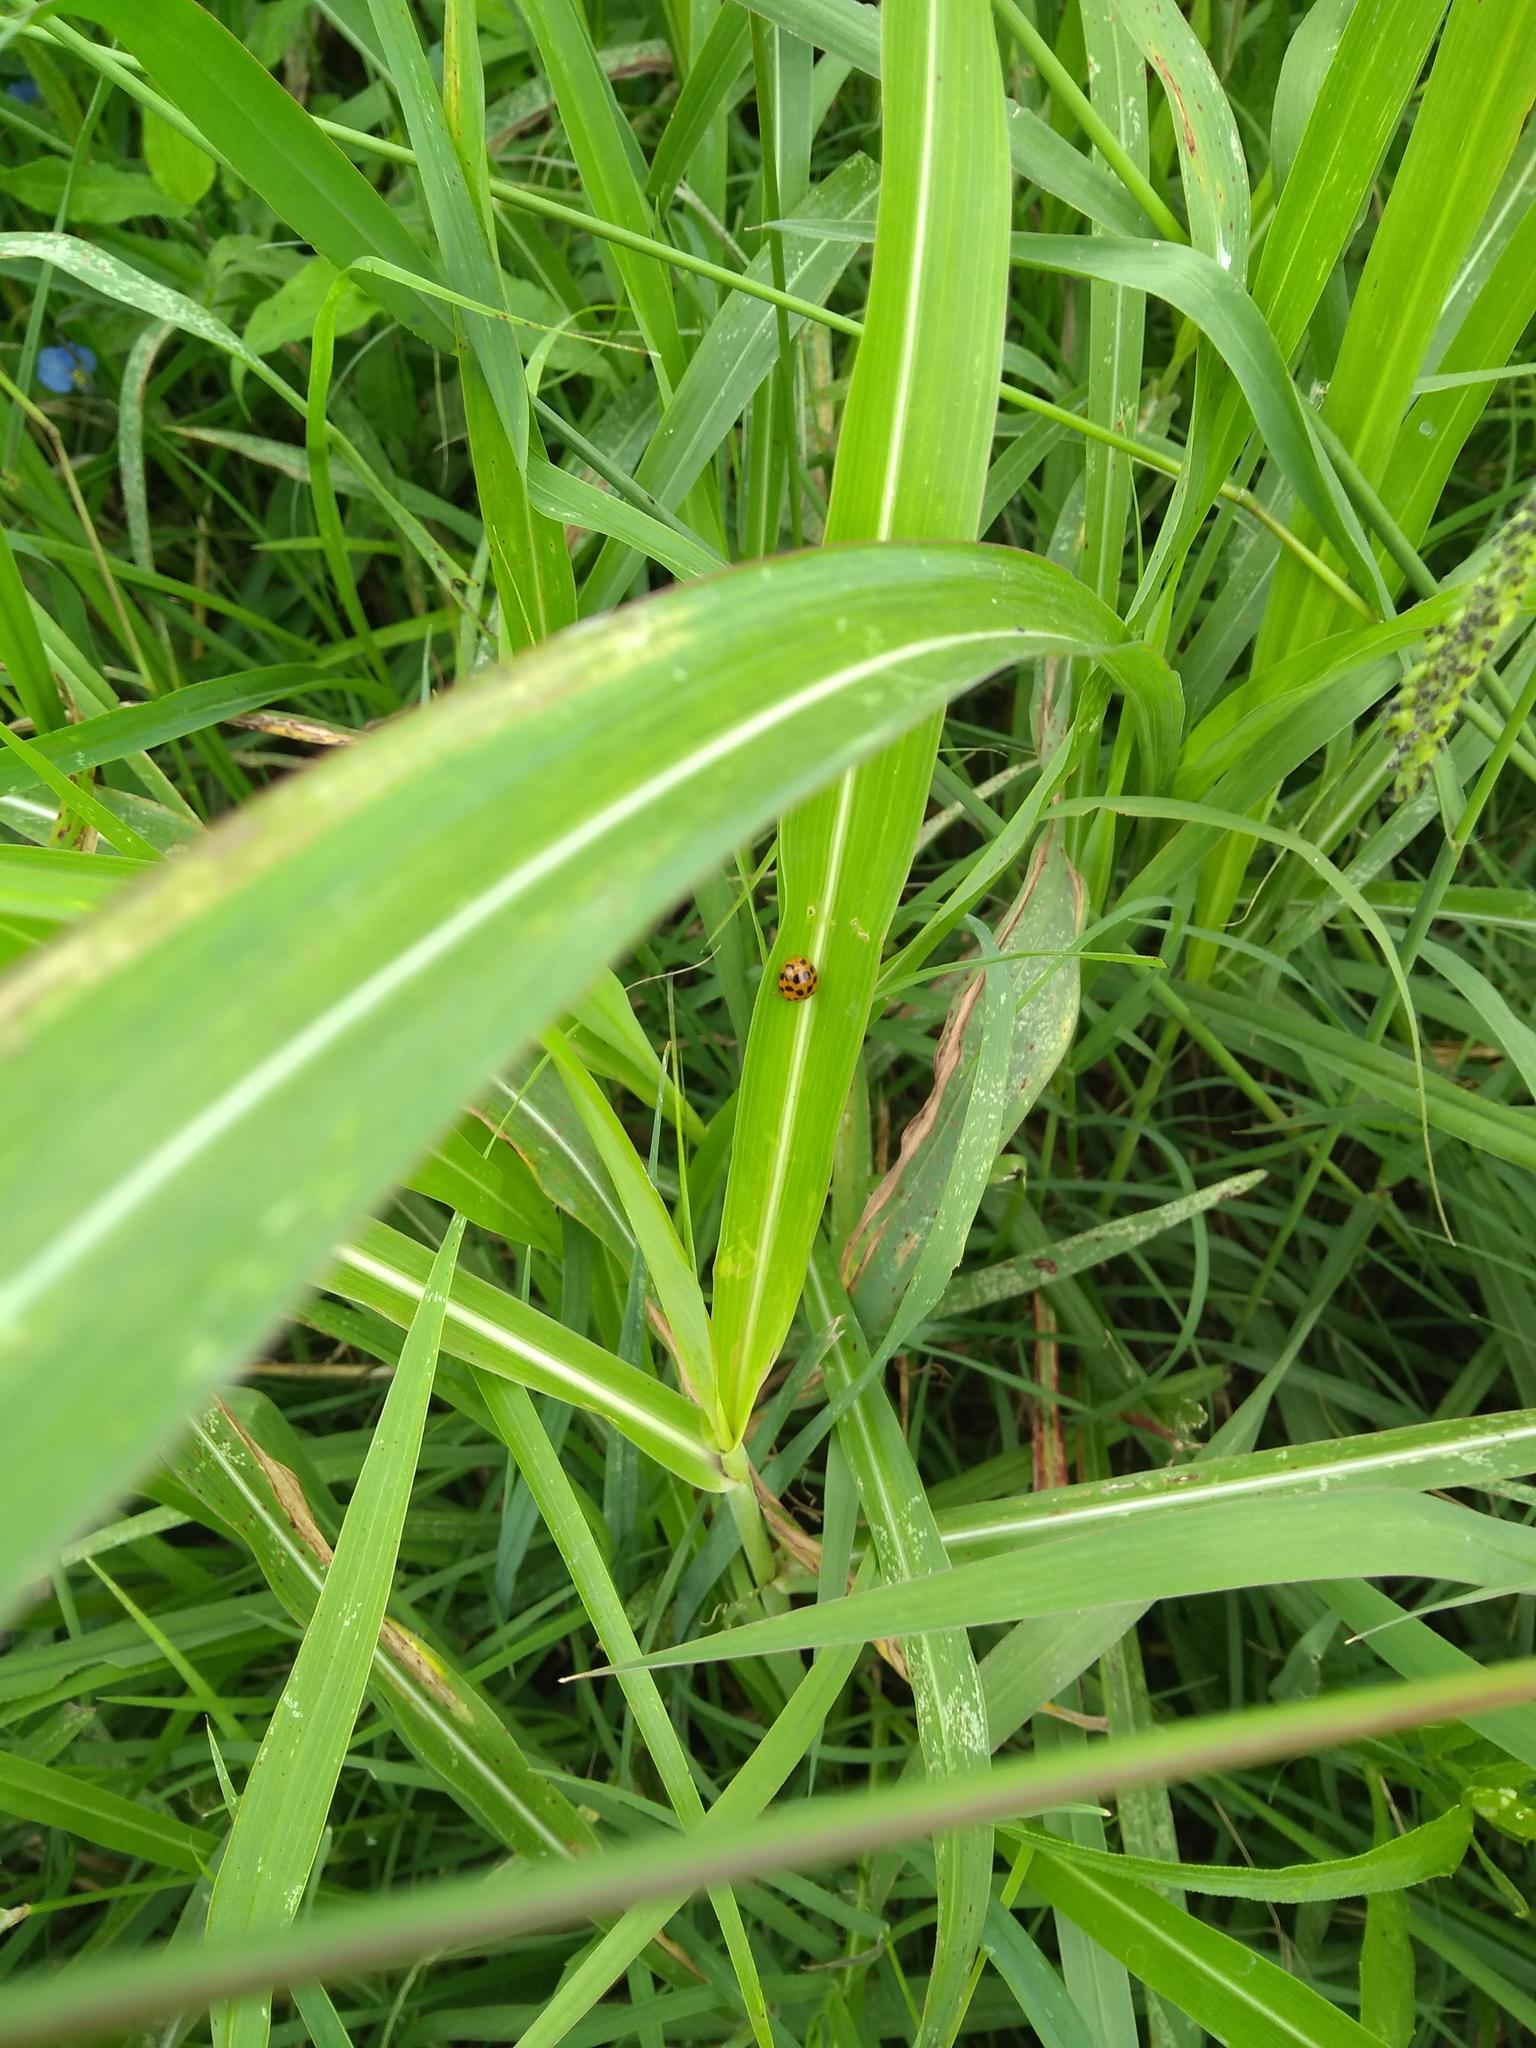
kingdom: Animalia
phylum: Arthropoda
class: Insecta
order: Coleoptera
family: Coccinellidae
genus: Harmonia
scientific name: Harmonia axyridis
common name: Harlequin ladybird
